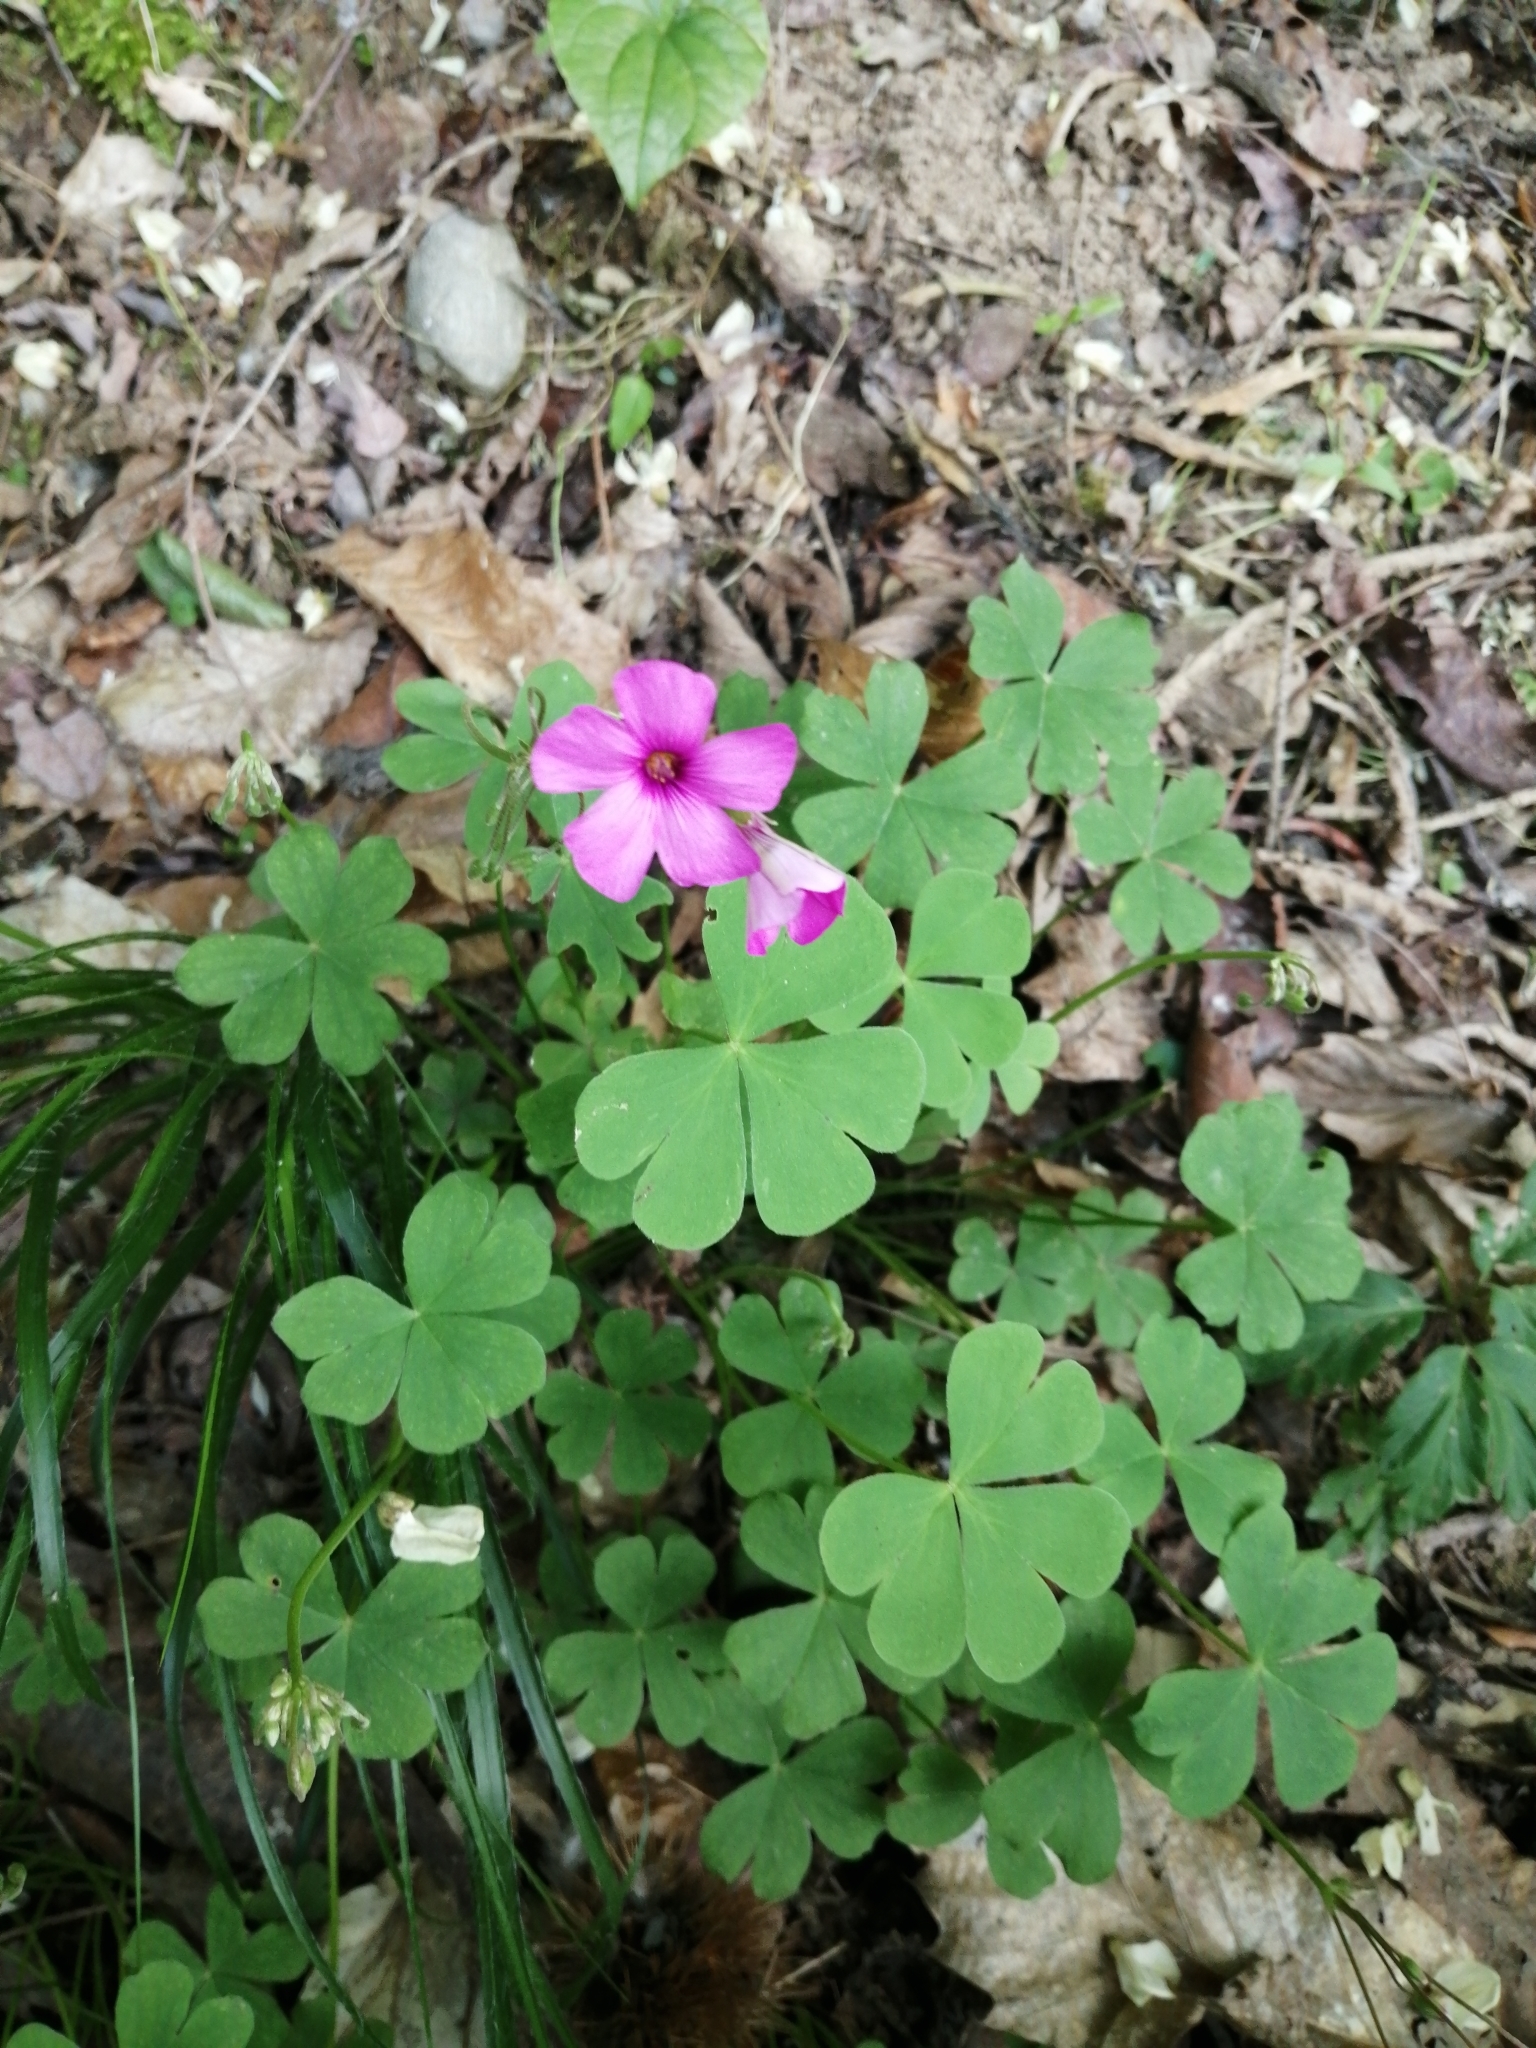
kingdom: Plantae
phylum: Tracheophyta
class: Magnoliopsida
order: Oxalidales
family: Oxalidaceae
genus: Oxalis
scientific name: Oxalis articulata
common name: Pink-sorrel
